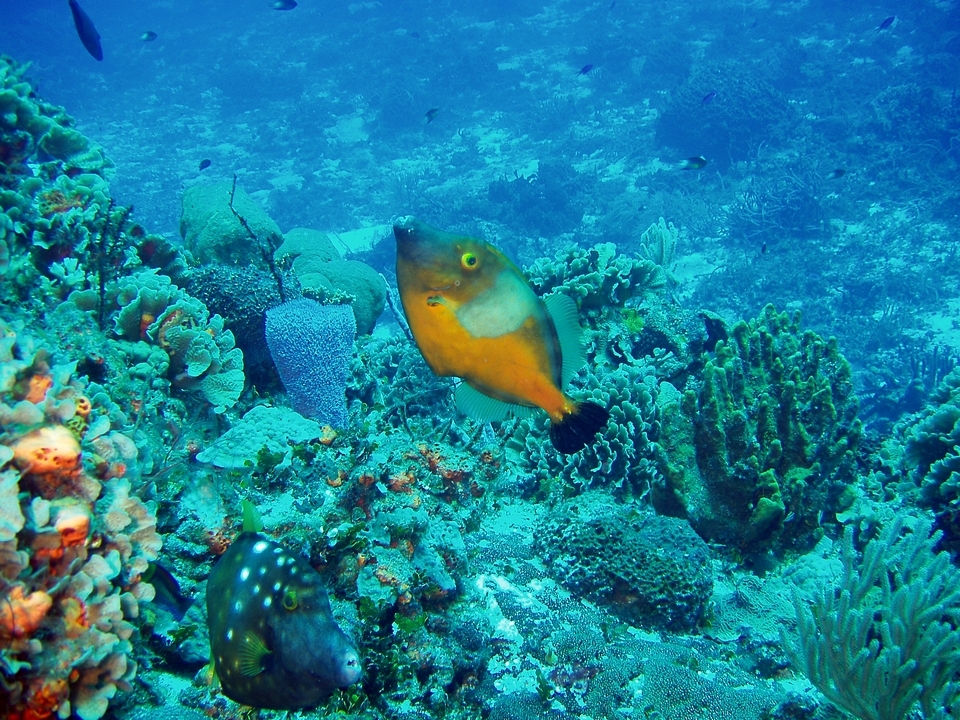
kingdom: Animalia
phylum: Chordata
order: Tetraodontiformes
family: Monacanthidae
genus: Cantherhines
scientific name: Cantherhines macrocerus
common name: Whitespotted filefish
